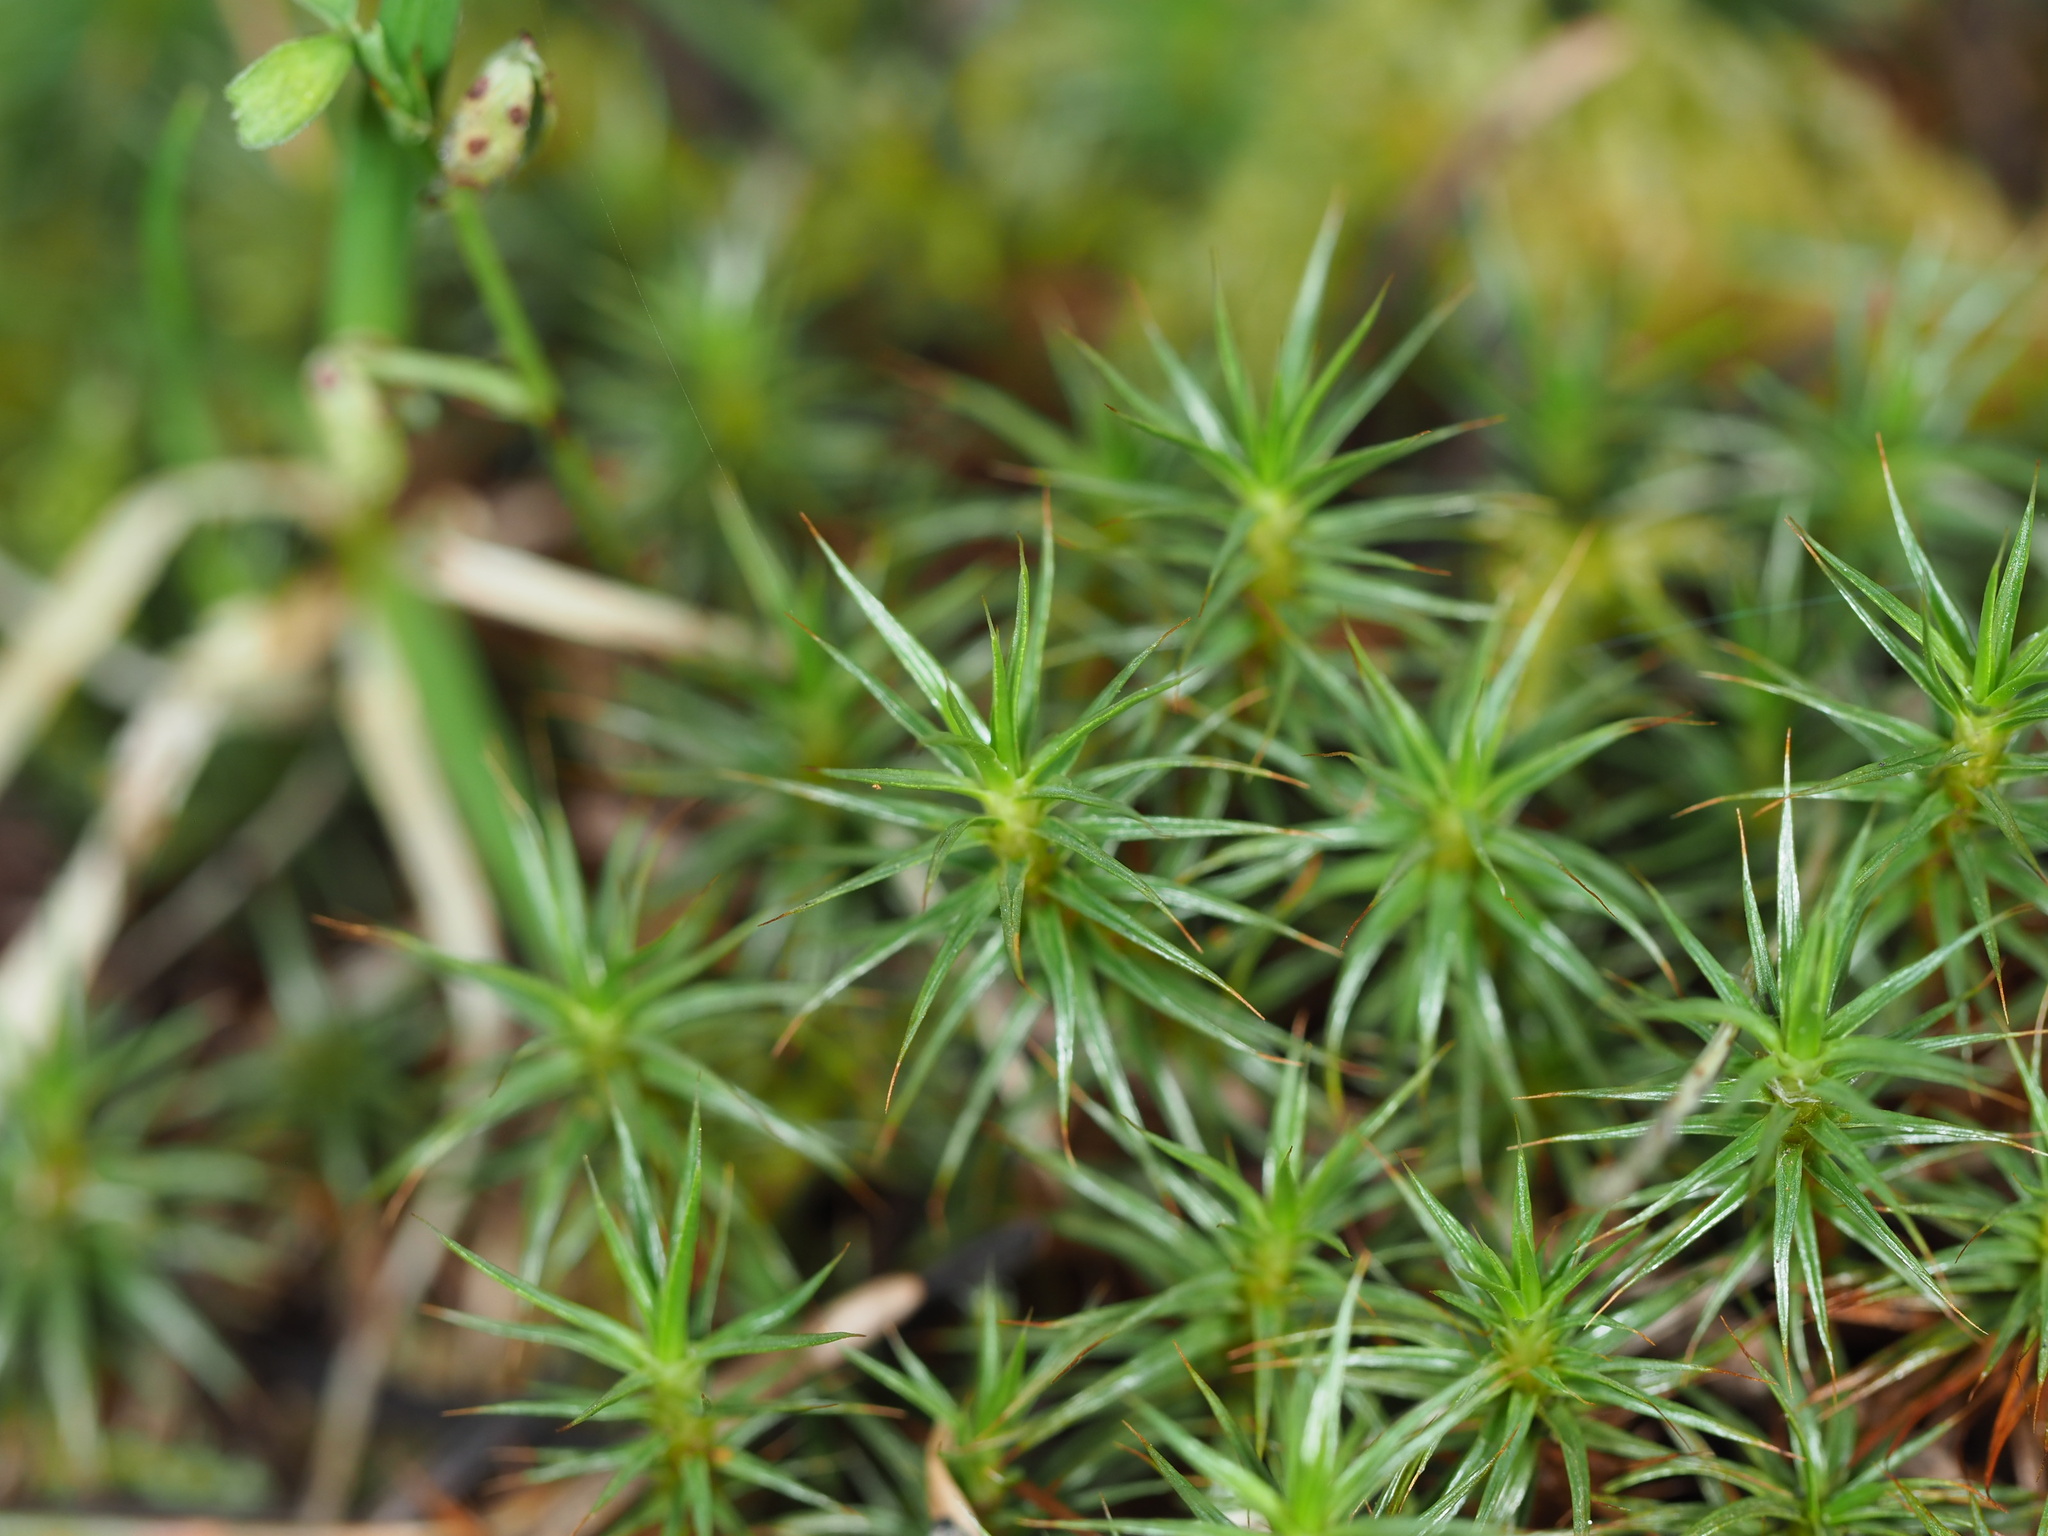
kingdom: Plantae
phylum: Bryophyta
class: Polytrichopsida
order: Polytrichales
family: Polytrichaceae
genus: Polytrichum
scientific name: Polytrichum juniperinum
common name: Juniper haircap moss
